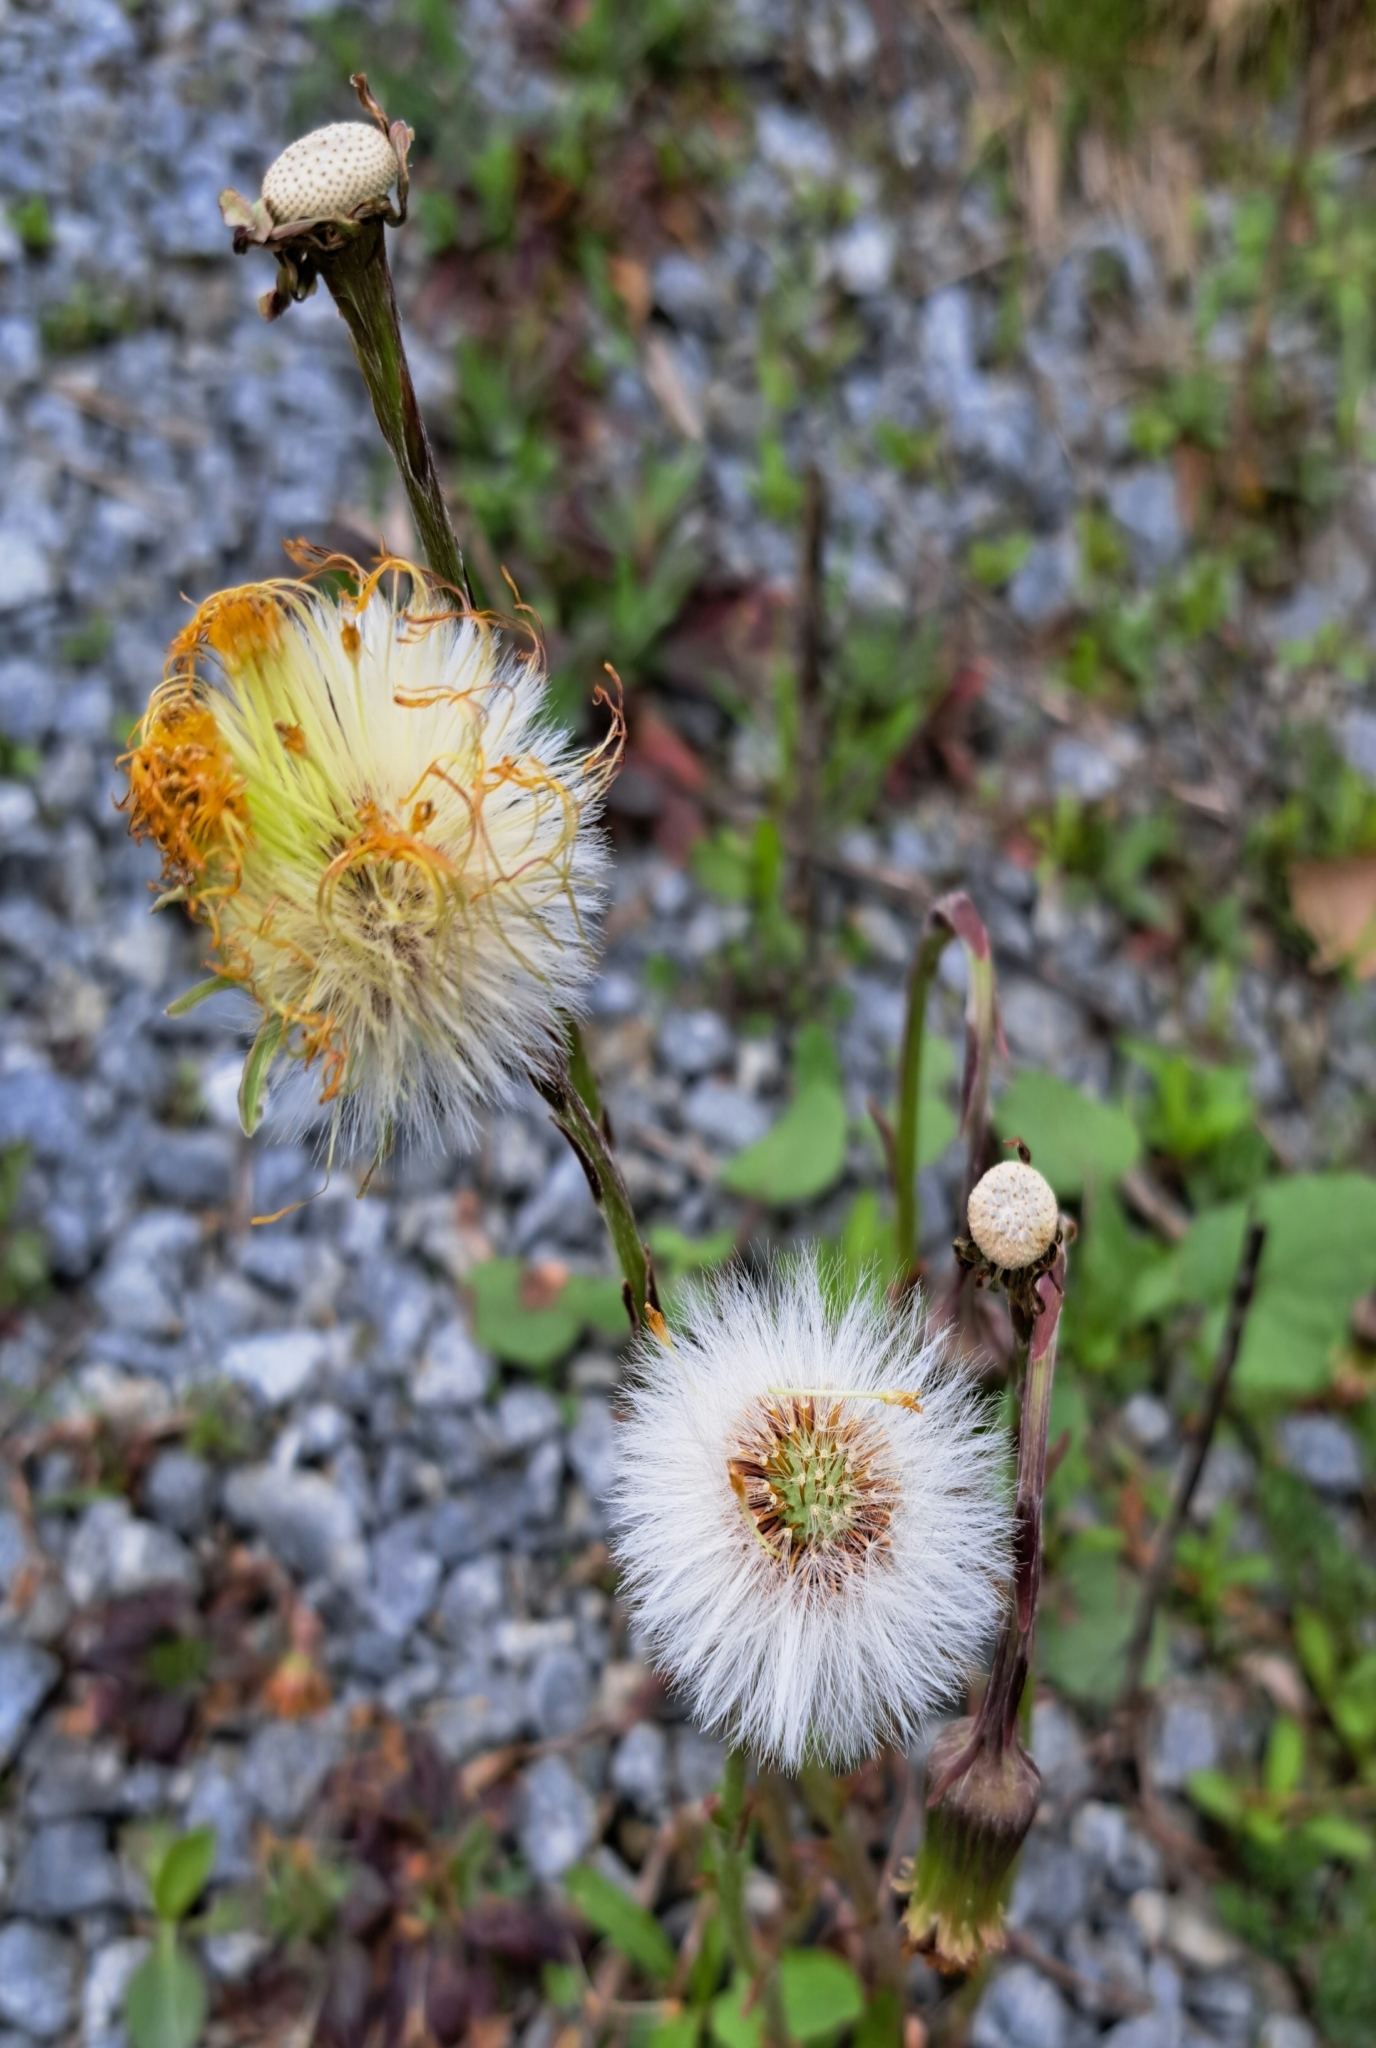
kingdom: Plantae
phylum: Tracheophyta
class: Magnoliopsida
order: Asterales
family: Asteraceae
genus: Tussilago
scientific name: Tussilago farfara
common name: Coltsfoot
